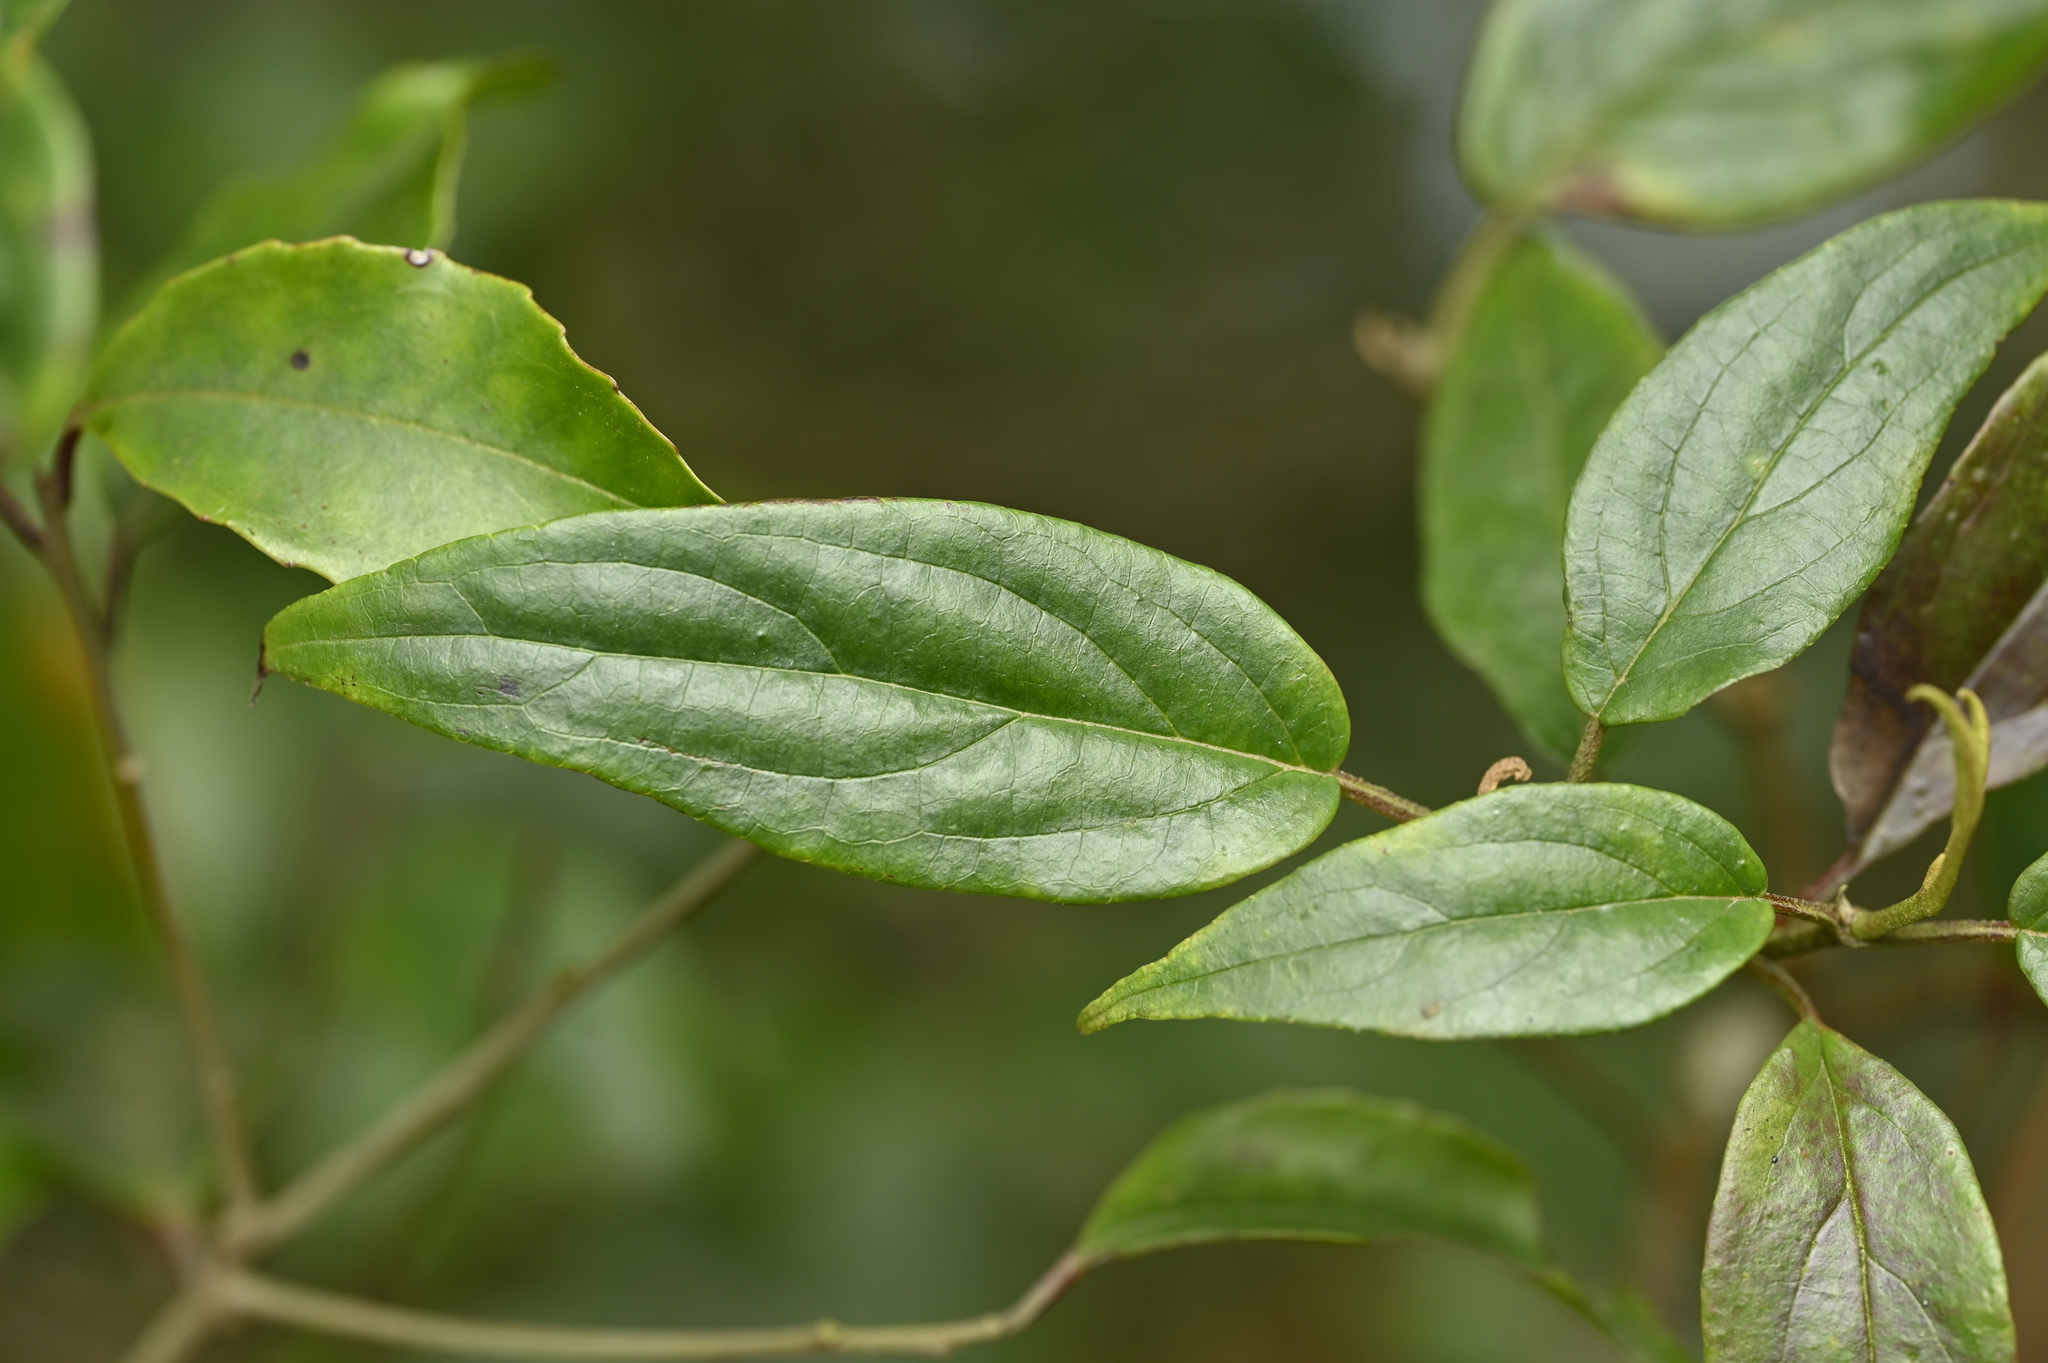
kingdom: Plantae
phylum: Tracheophyta
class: Magnoliopsida
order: Dipsacales
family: Viburnaceae
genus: Viburnum
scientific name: Viburnum urceolatum
